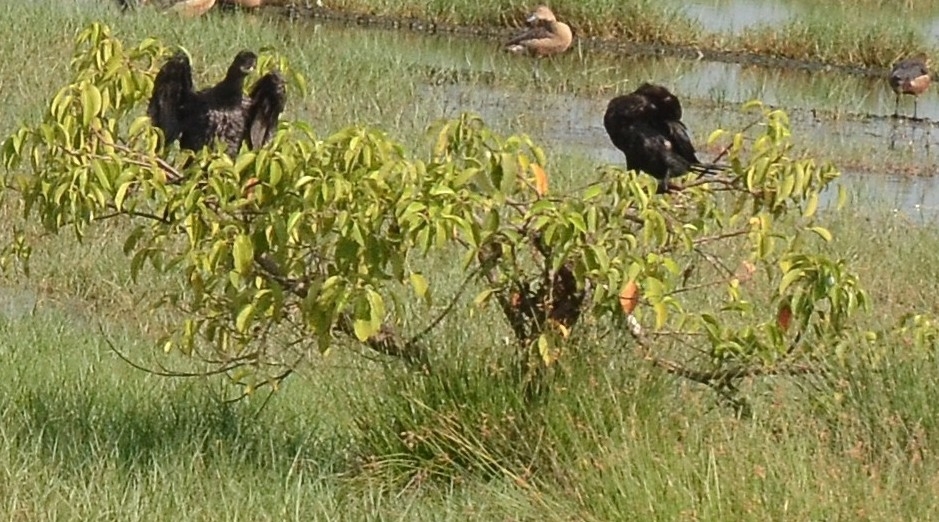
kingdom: Animalia
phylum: Chordata
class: Aves
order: Suliformes
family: Phalacrocoracidae
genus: Microcarbo
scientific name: Microcarbo niger
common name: Little cormorant
